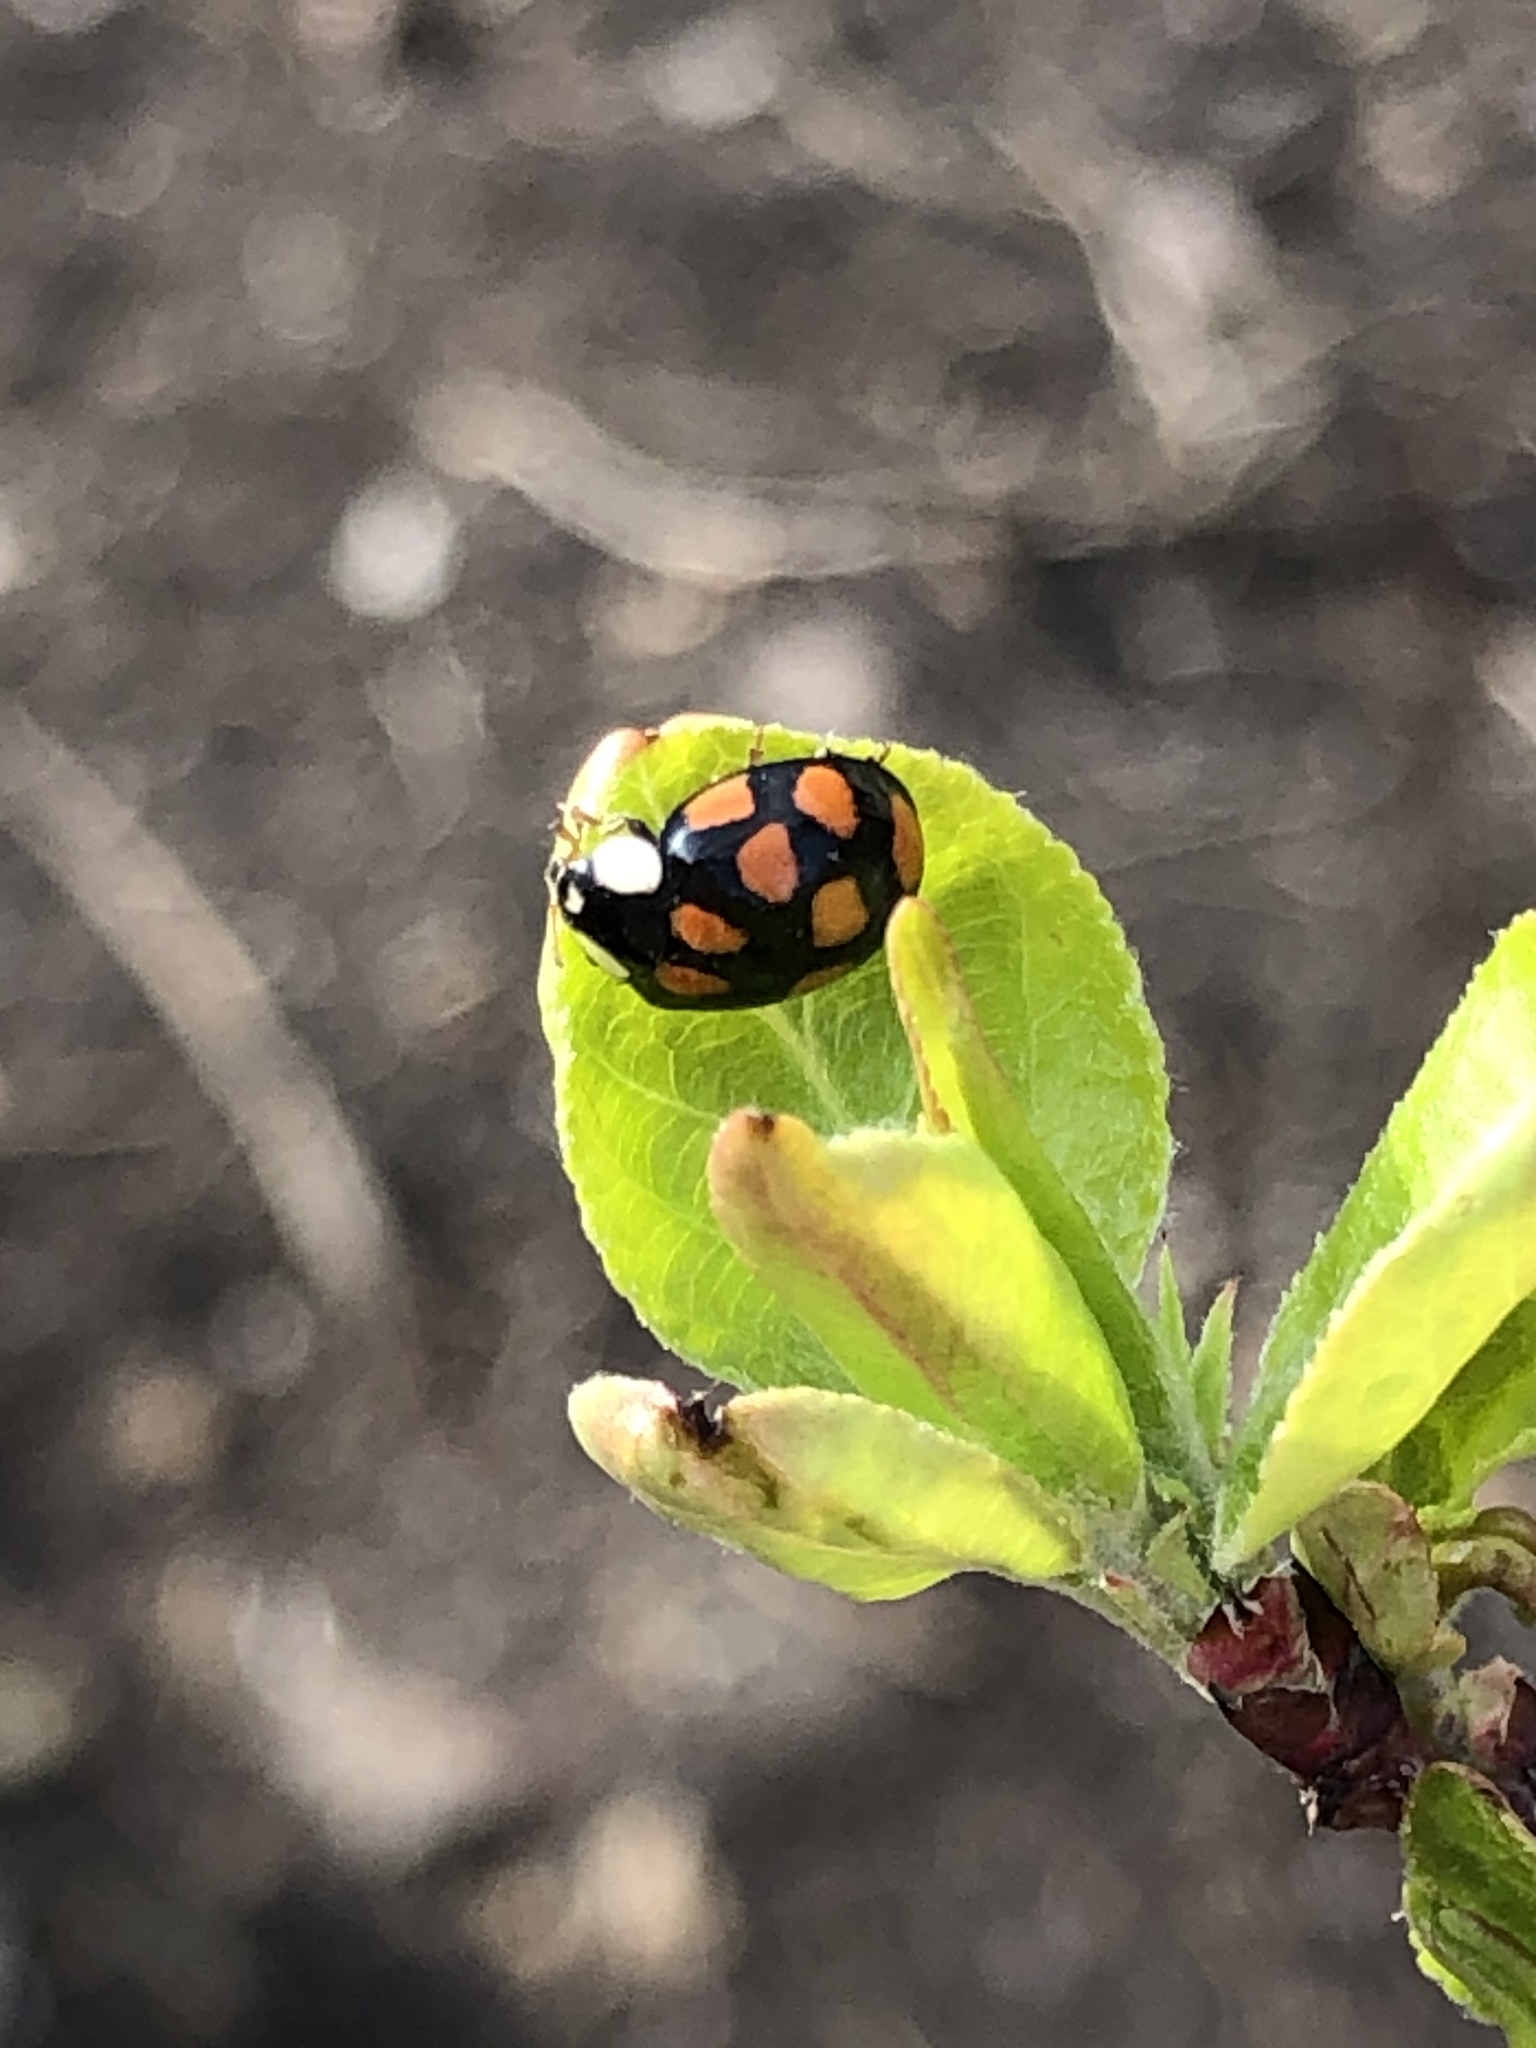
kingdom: Animalia
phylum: Arthropoda
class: Insecta
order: Coleoptera
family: Coccinellidae
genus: Harmonia
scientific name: Harmonia axyridis
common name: Harlequin ladybird
